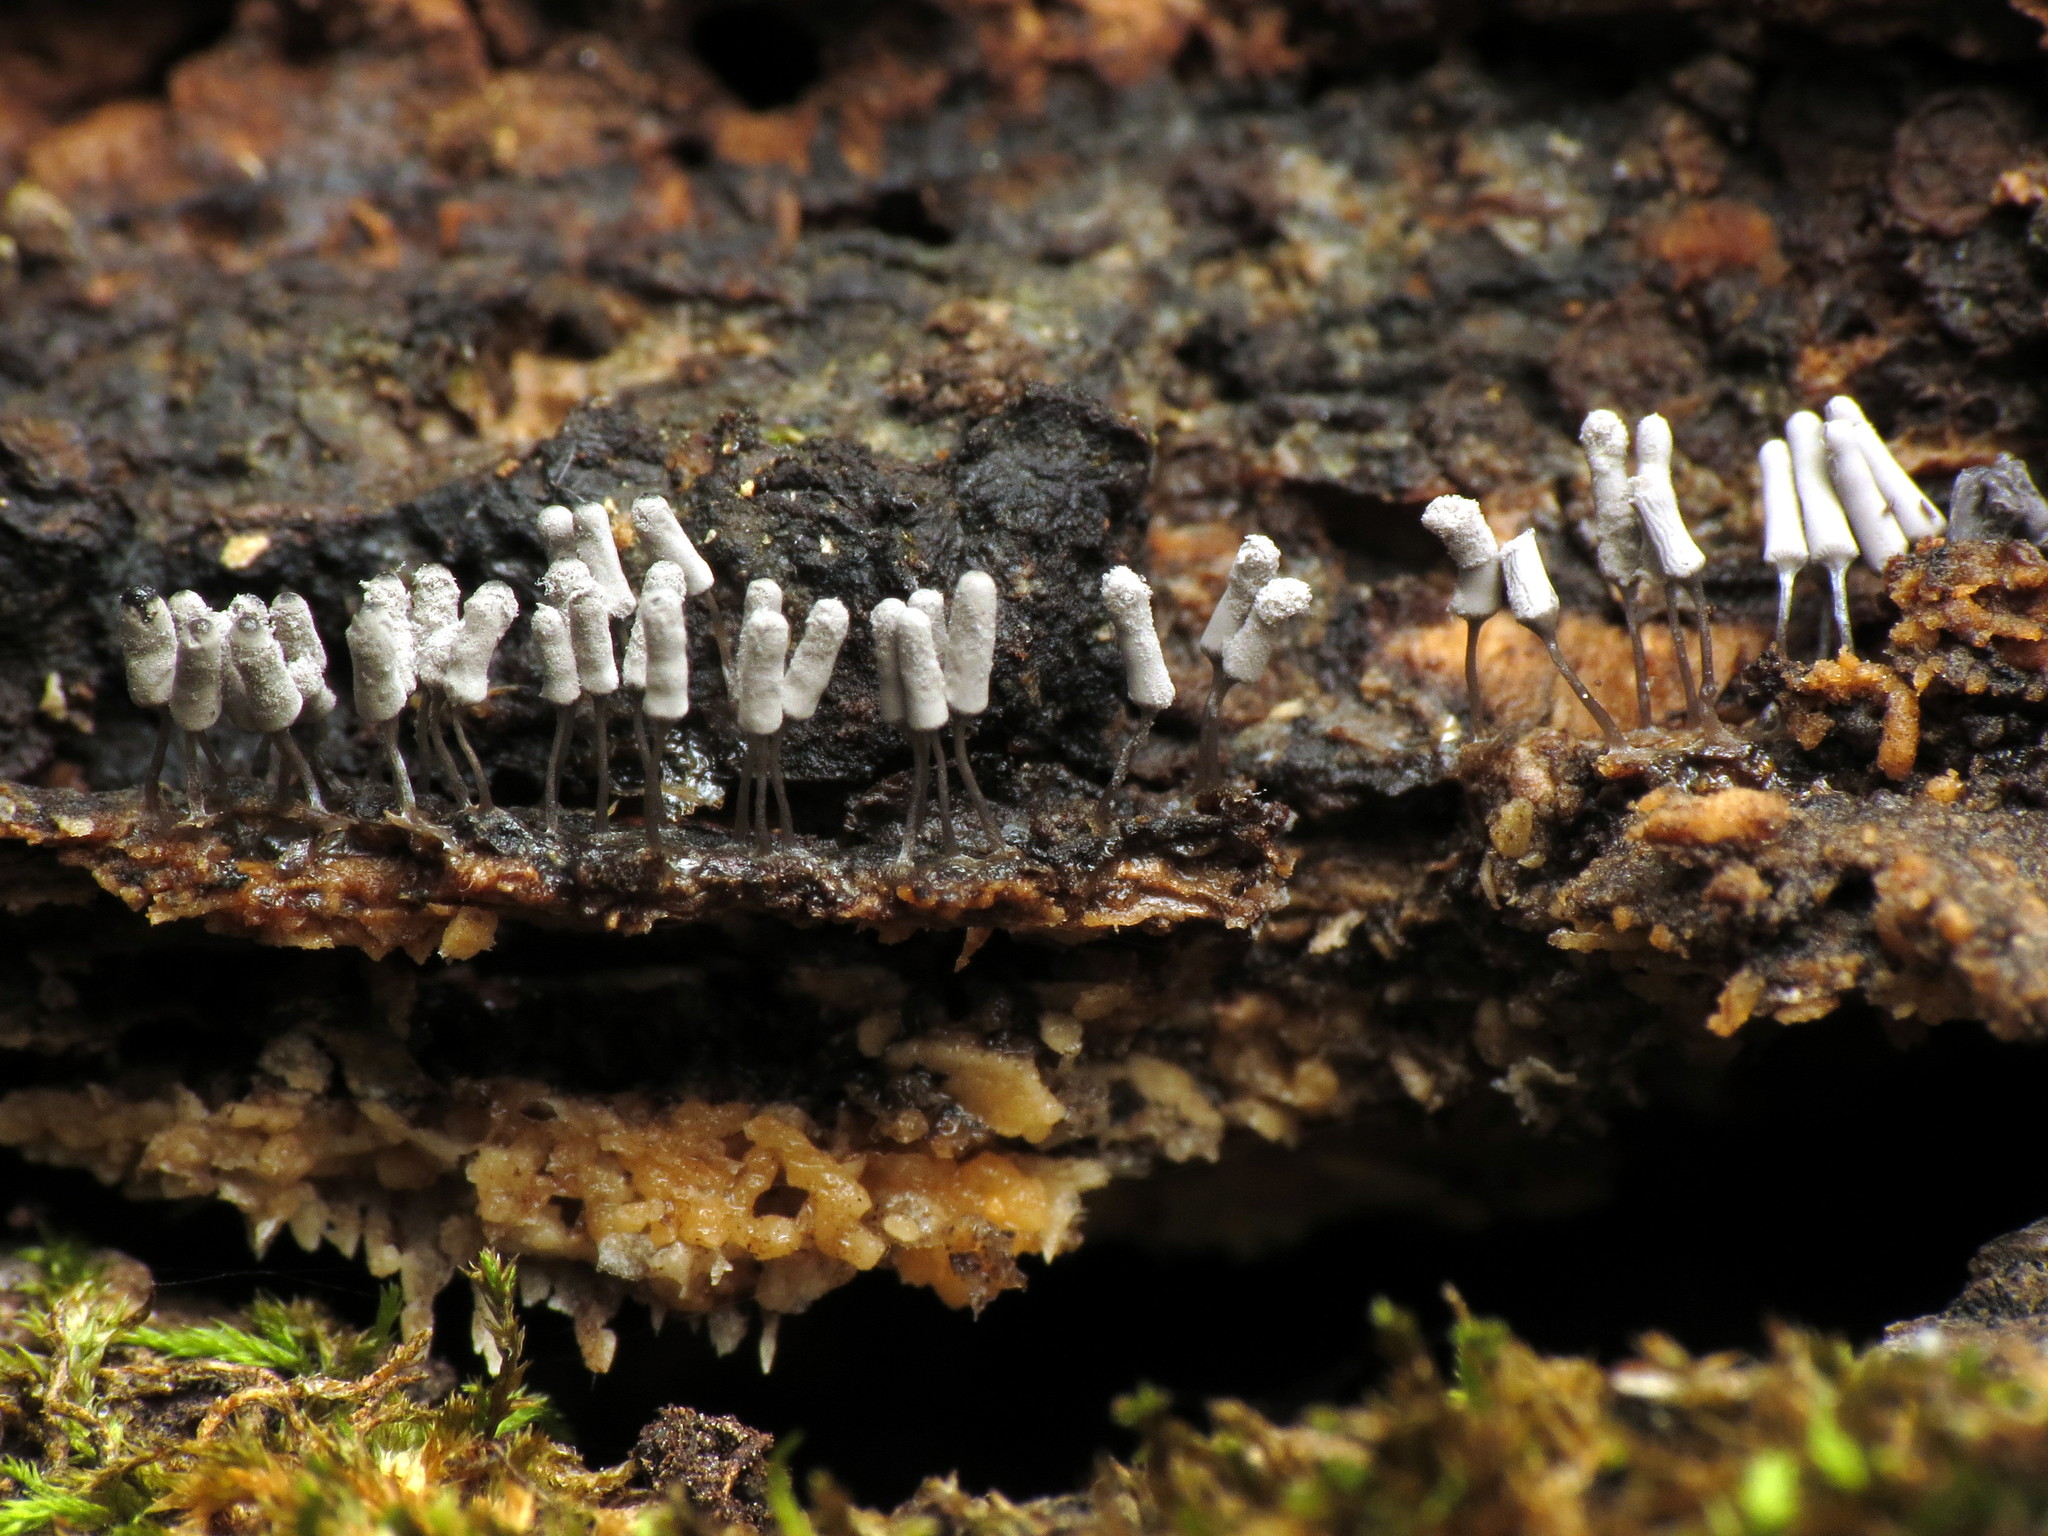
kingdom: Protozoa
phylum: Mycetozoa
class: Myxomycetes
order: Trichiales
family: Arcyriaceae
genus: Arcyria
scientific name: Arcyria cinerea
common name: White carnival candy slime mold
